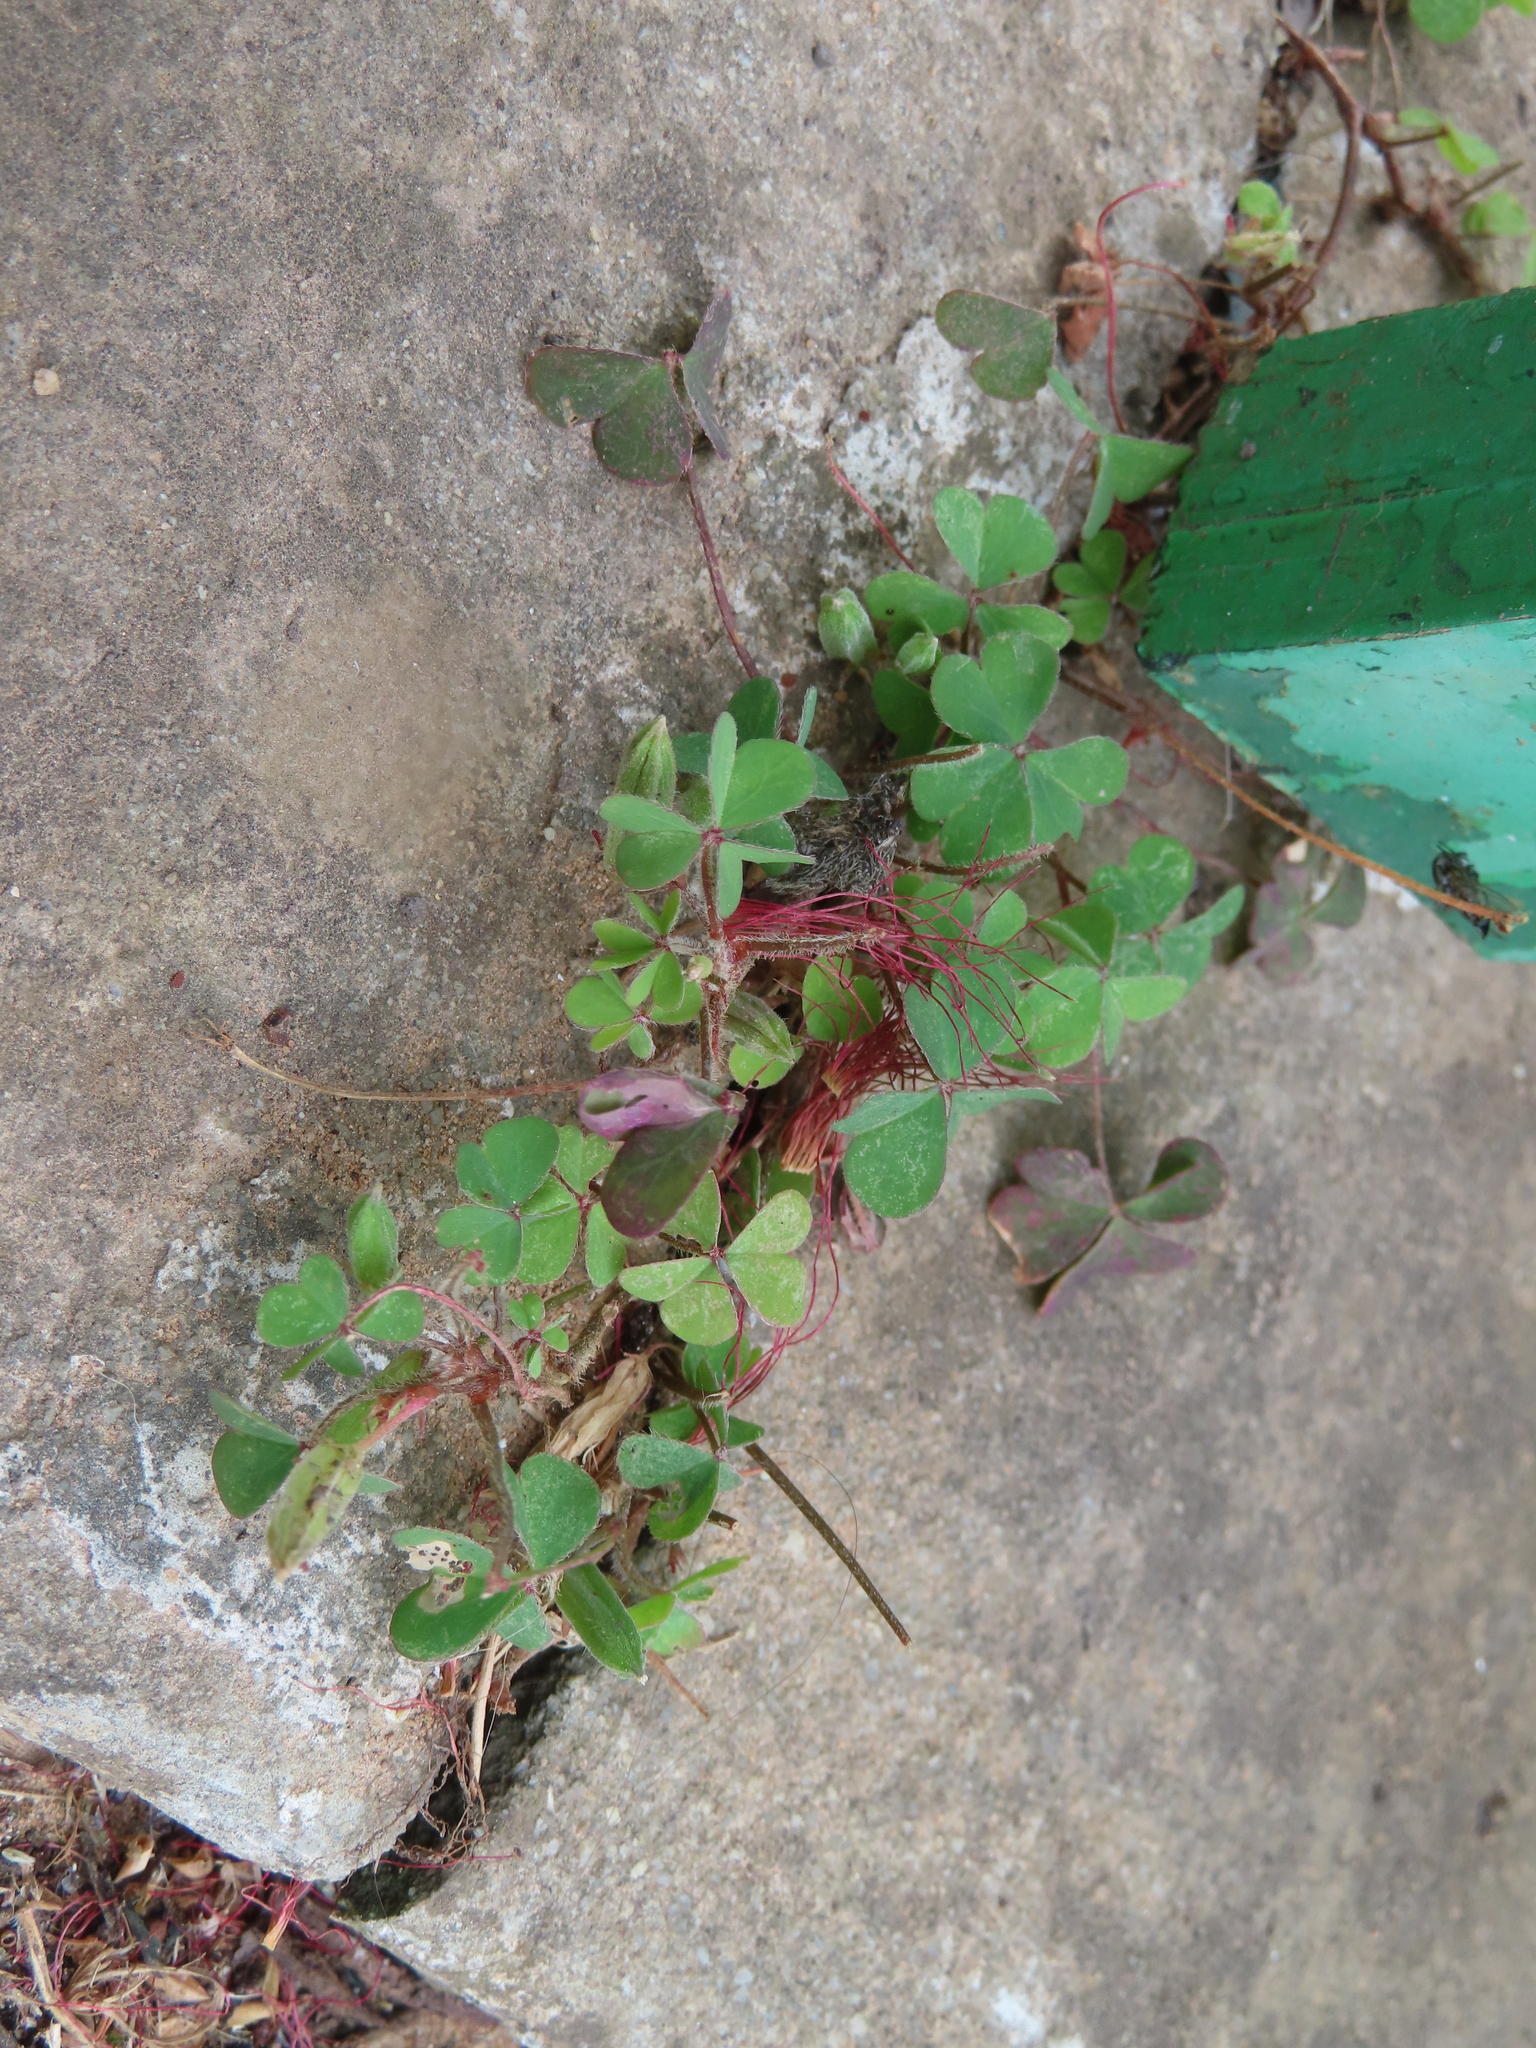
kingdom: Plantae
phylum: Tracheophyta
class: Magnoliopsida
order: Oxalidales
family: Oxalidaceae
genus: Oxalis
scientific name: Oxalis corniculata
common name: Procumbent yellow-sorrel
